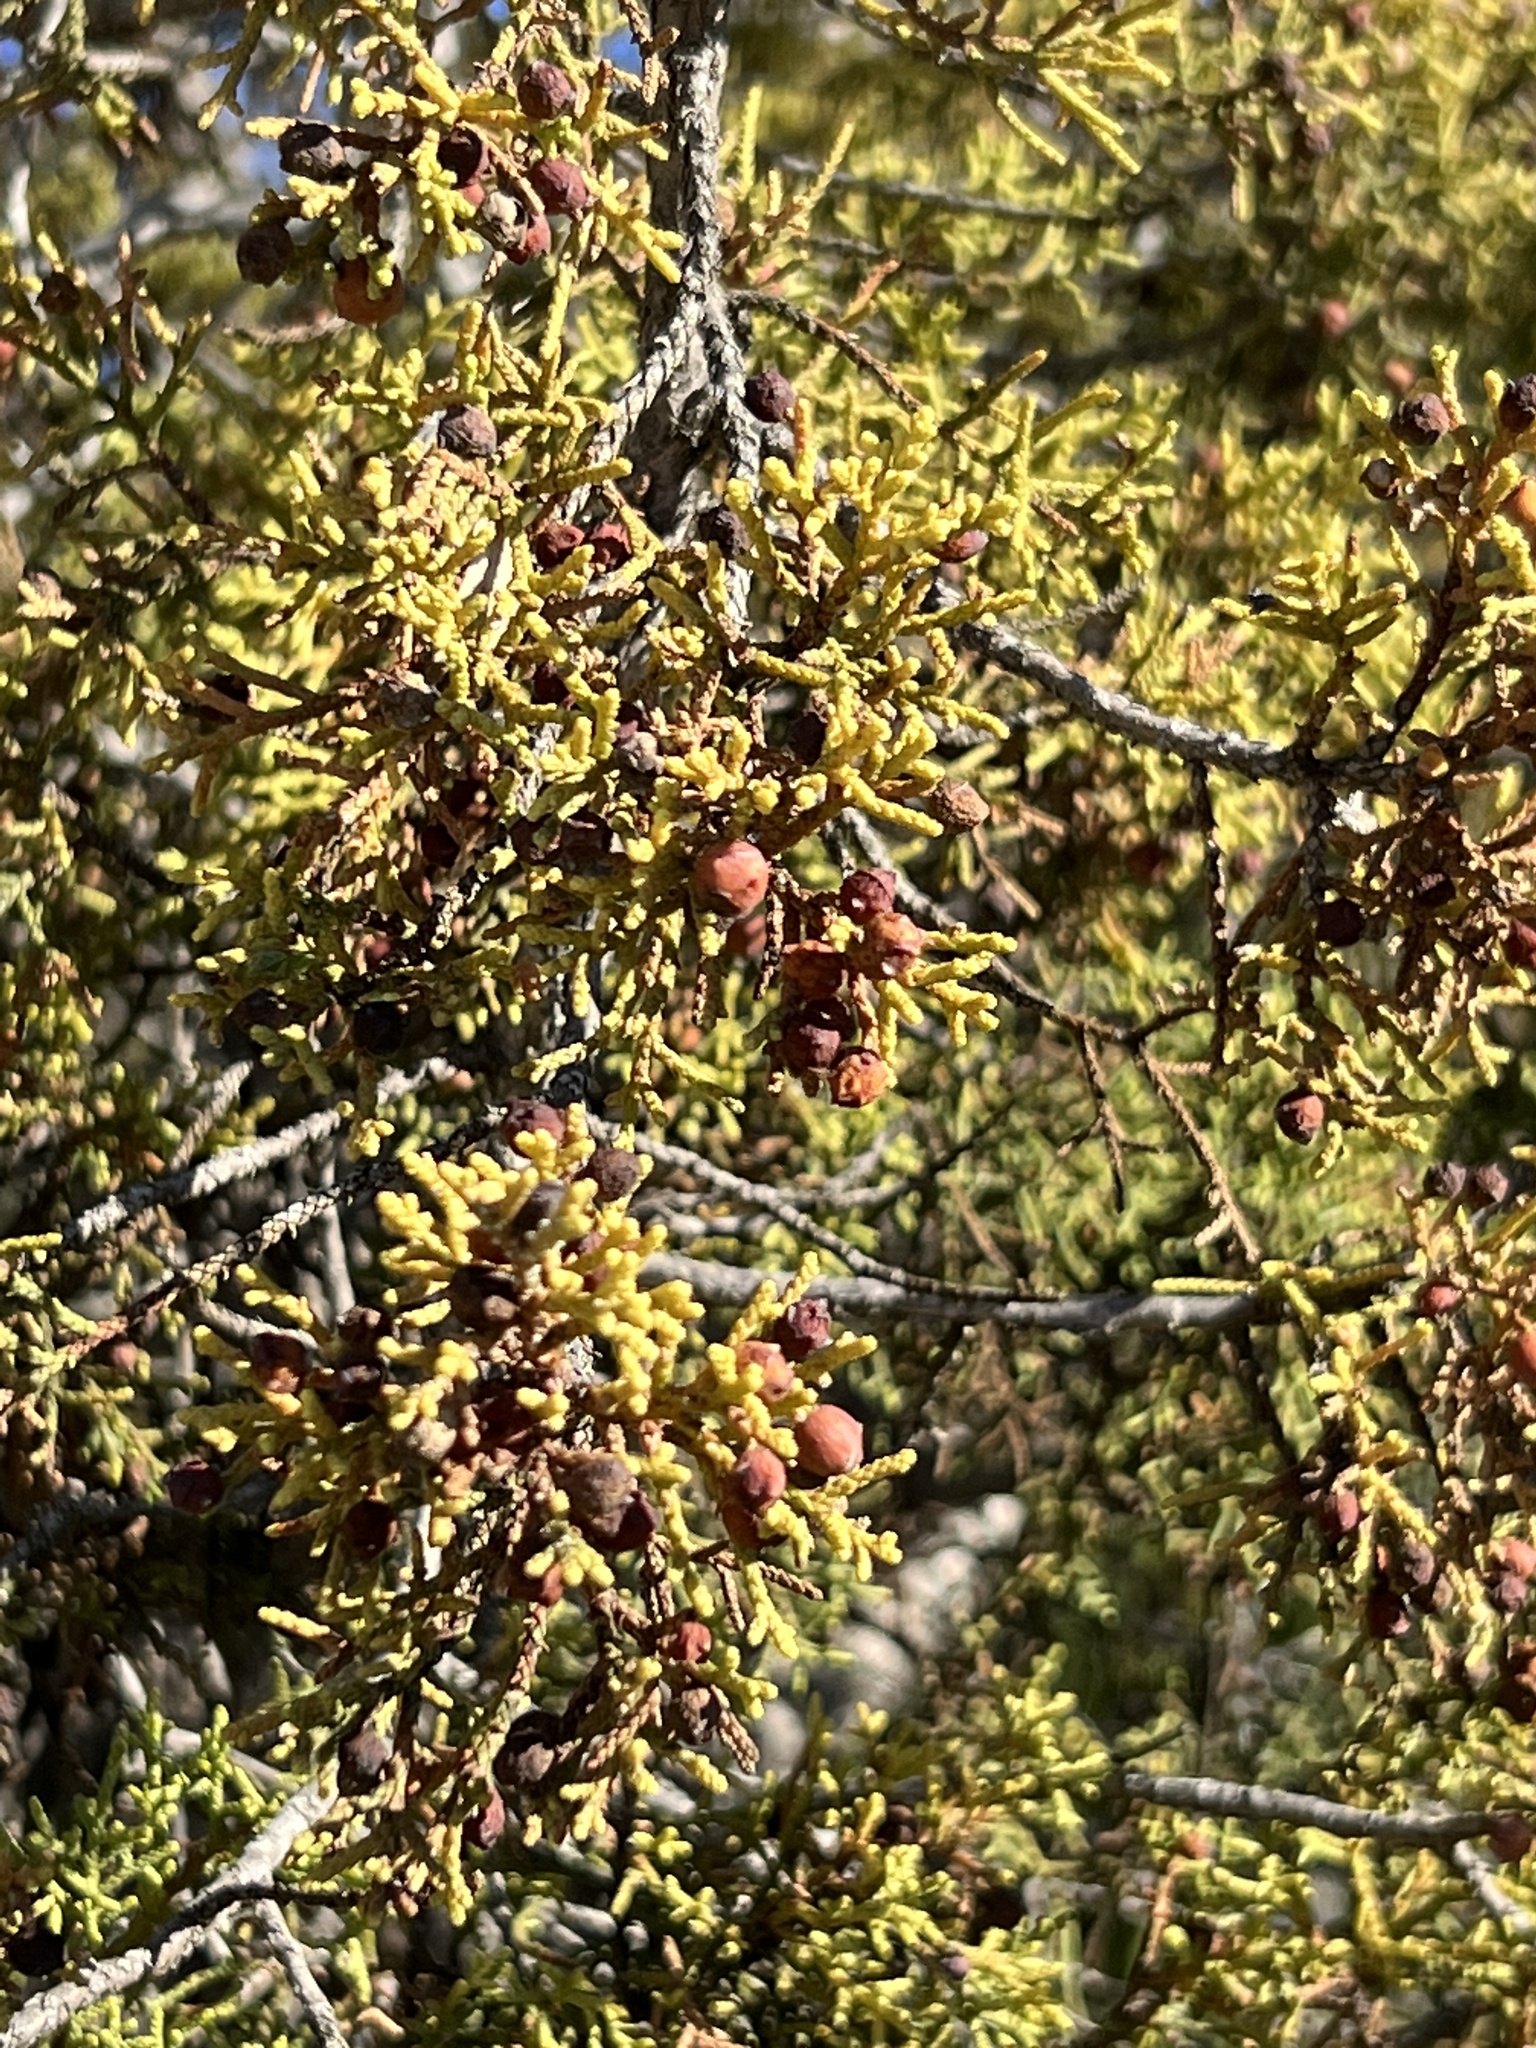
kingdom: Plantae
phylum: Tracheophyta
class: Pinopsida
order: Pinales
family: Cupressaceae
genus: Juniperus
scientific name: Juniperus pinchotii
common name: Pinchot juniper
